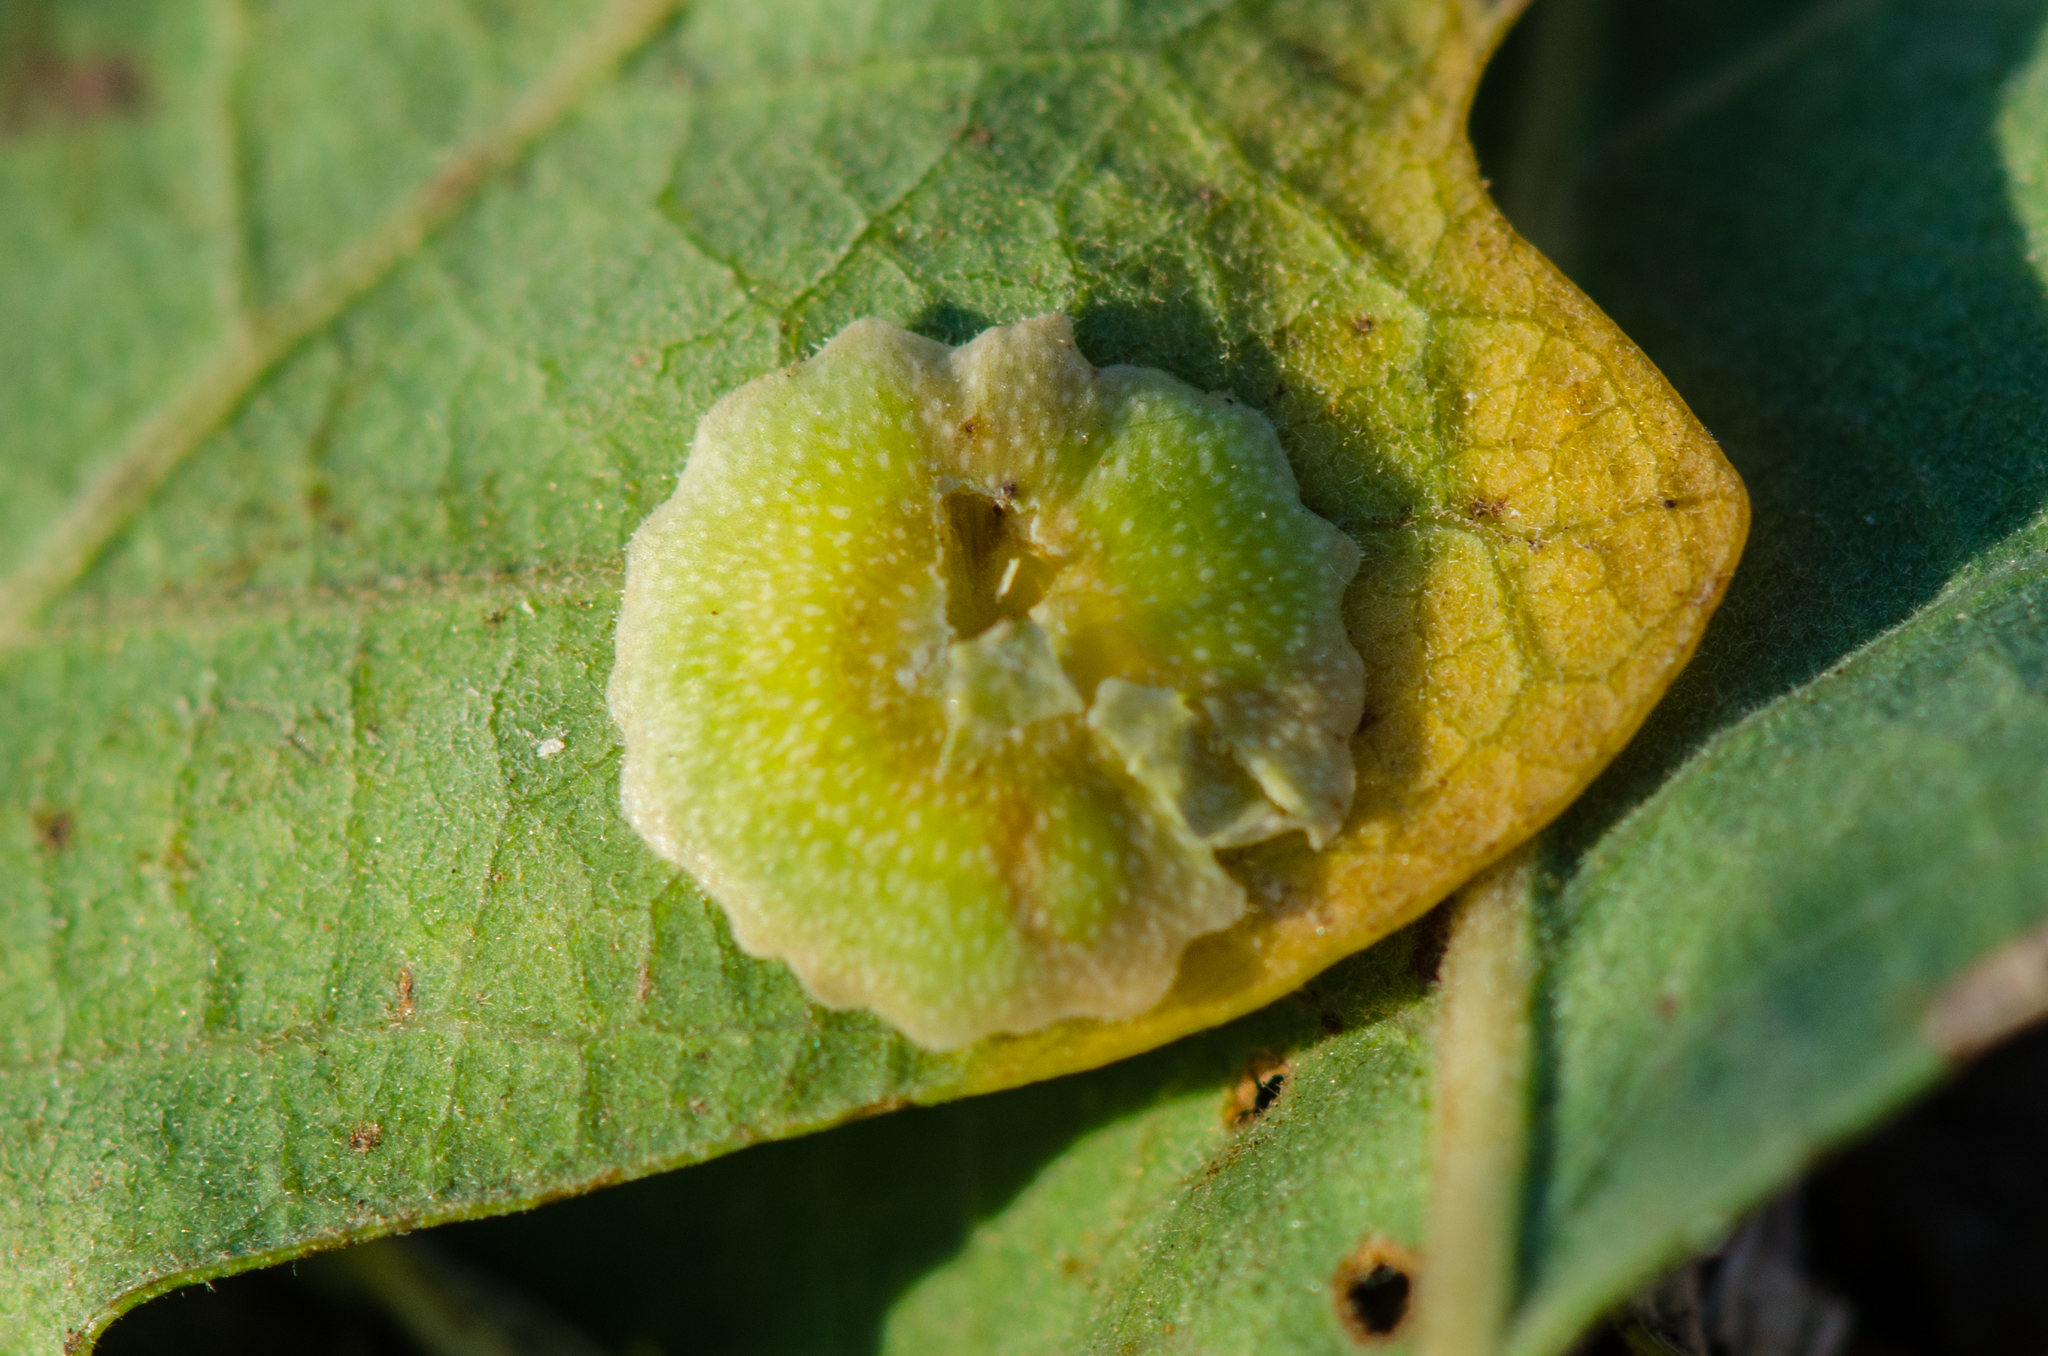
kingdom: Animalia
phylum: Arthropoda
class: Insecta
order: Hymenoptera
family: Cynipidae
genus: Andricus
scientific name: Andricus
